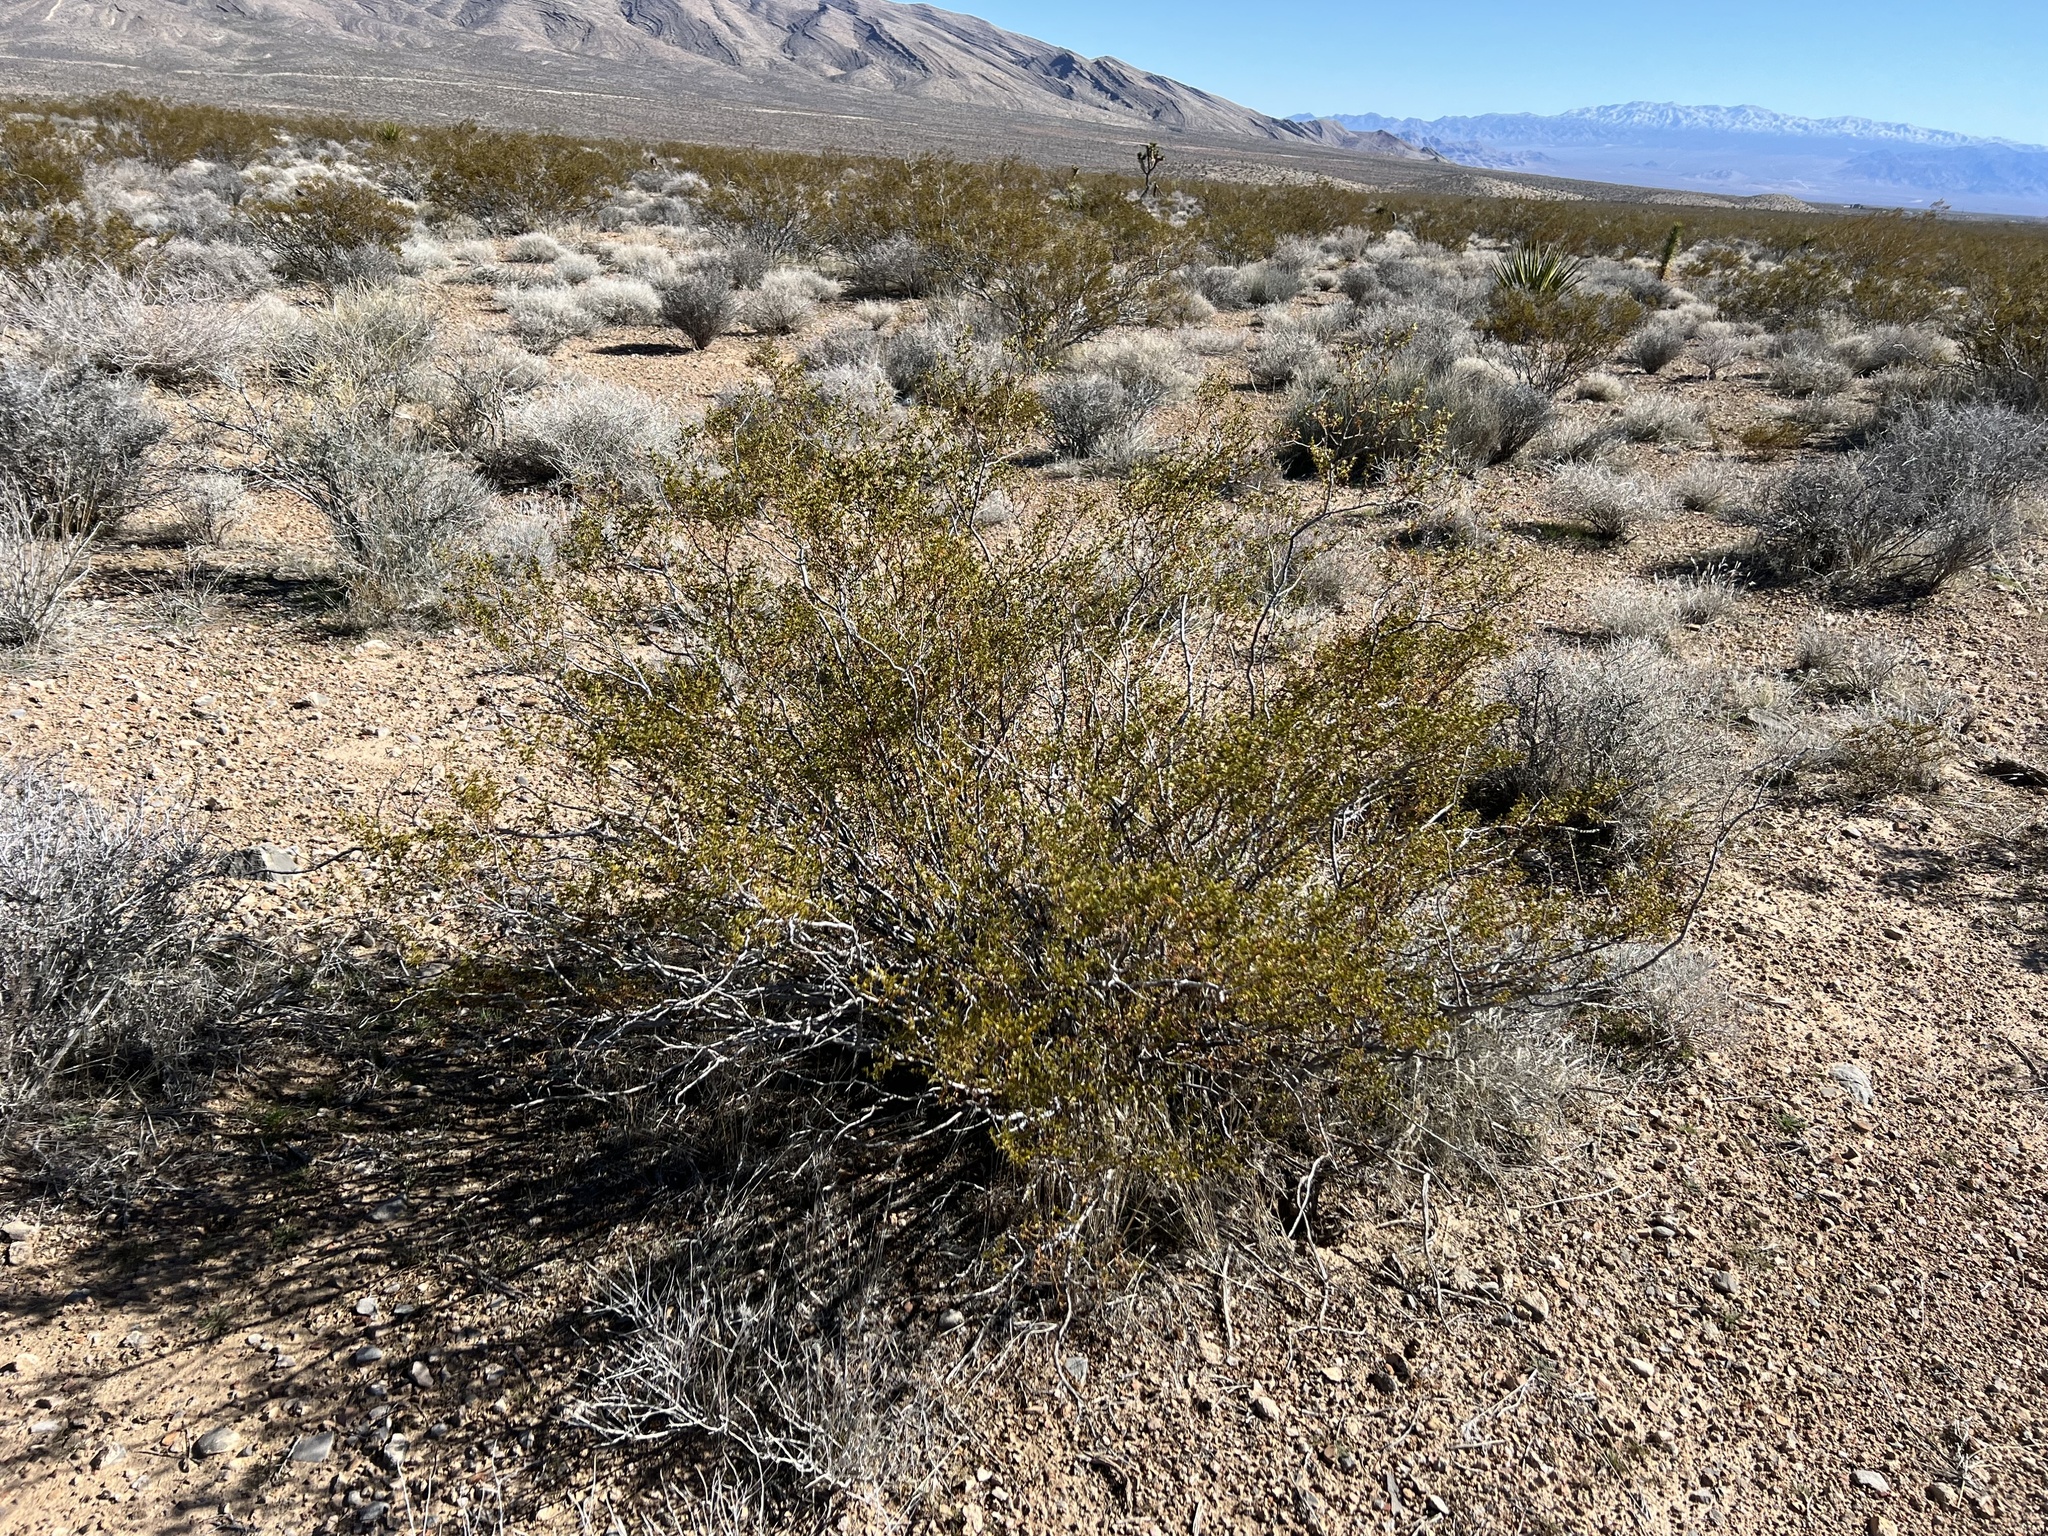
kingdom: Plantae
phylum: Tracheophyta
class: Magnoliopsida
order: Zygophyllales
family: Zygophyllaceae
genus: Larrea
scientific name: Larrea tridentata
